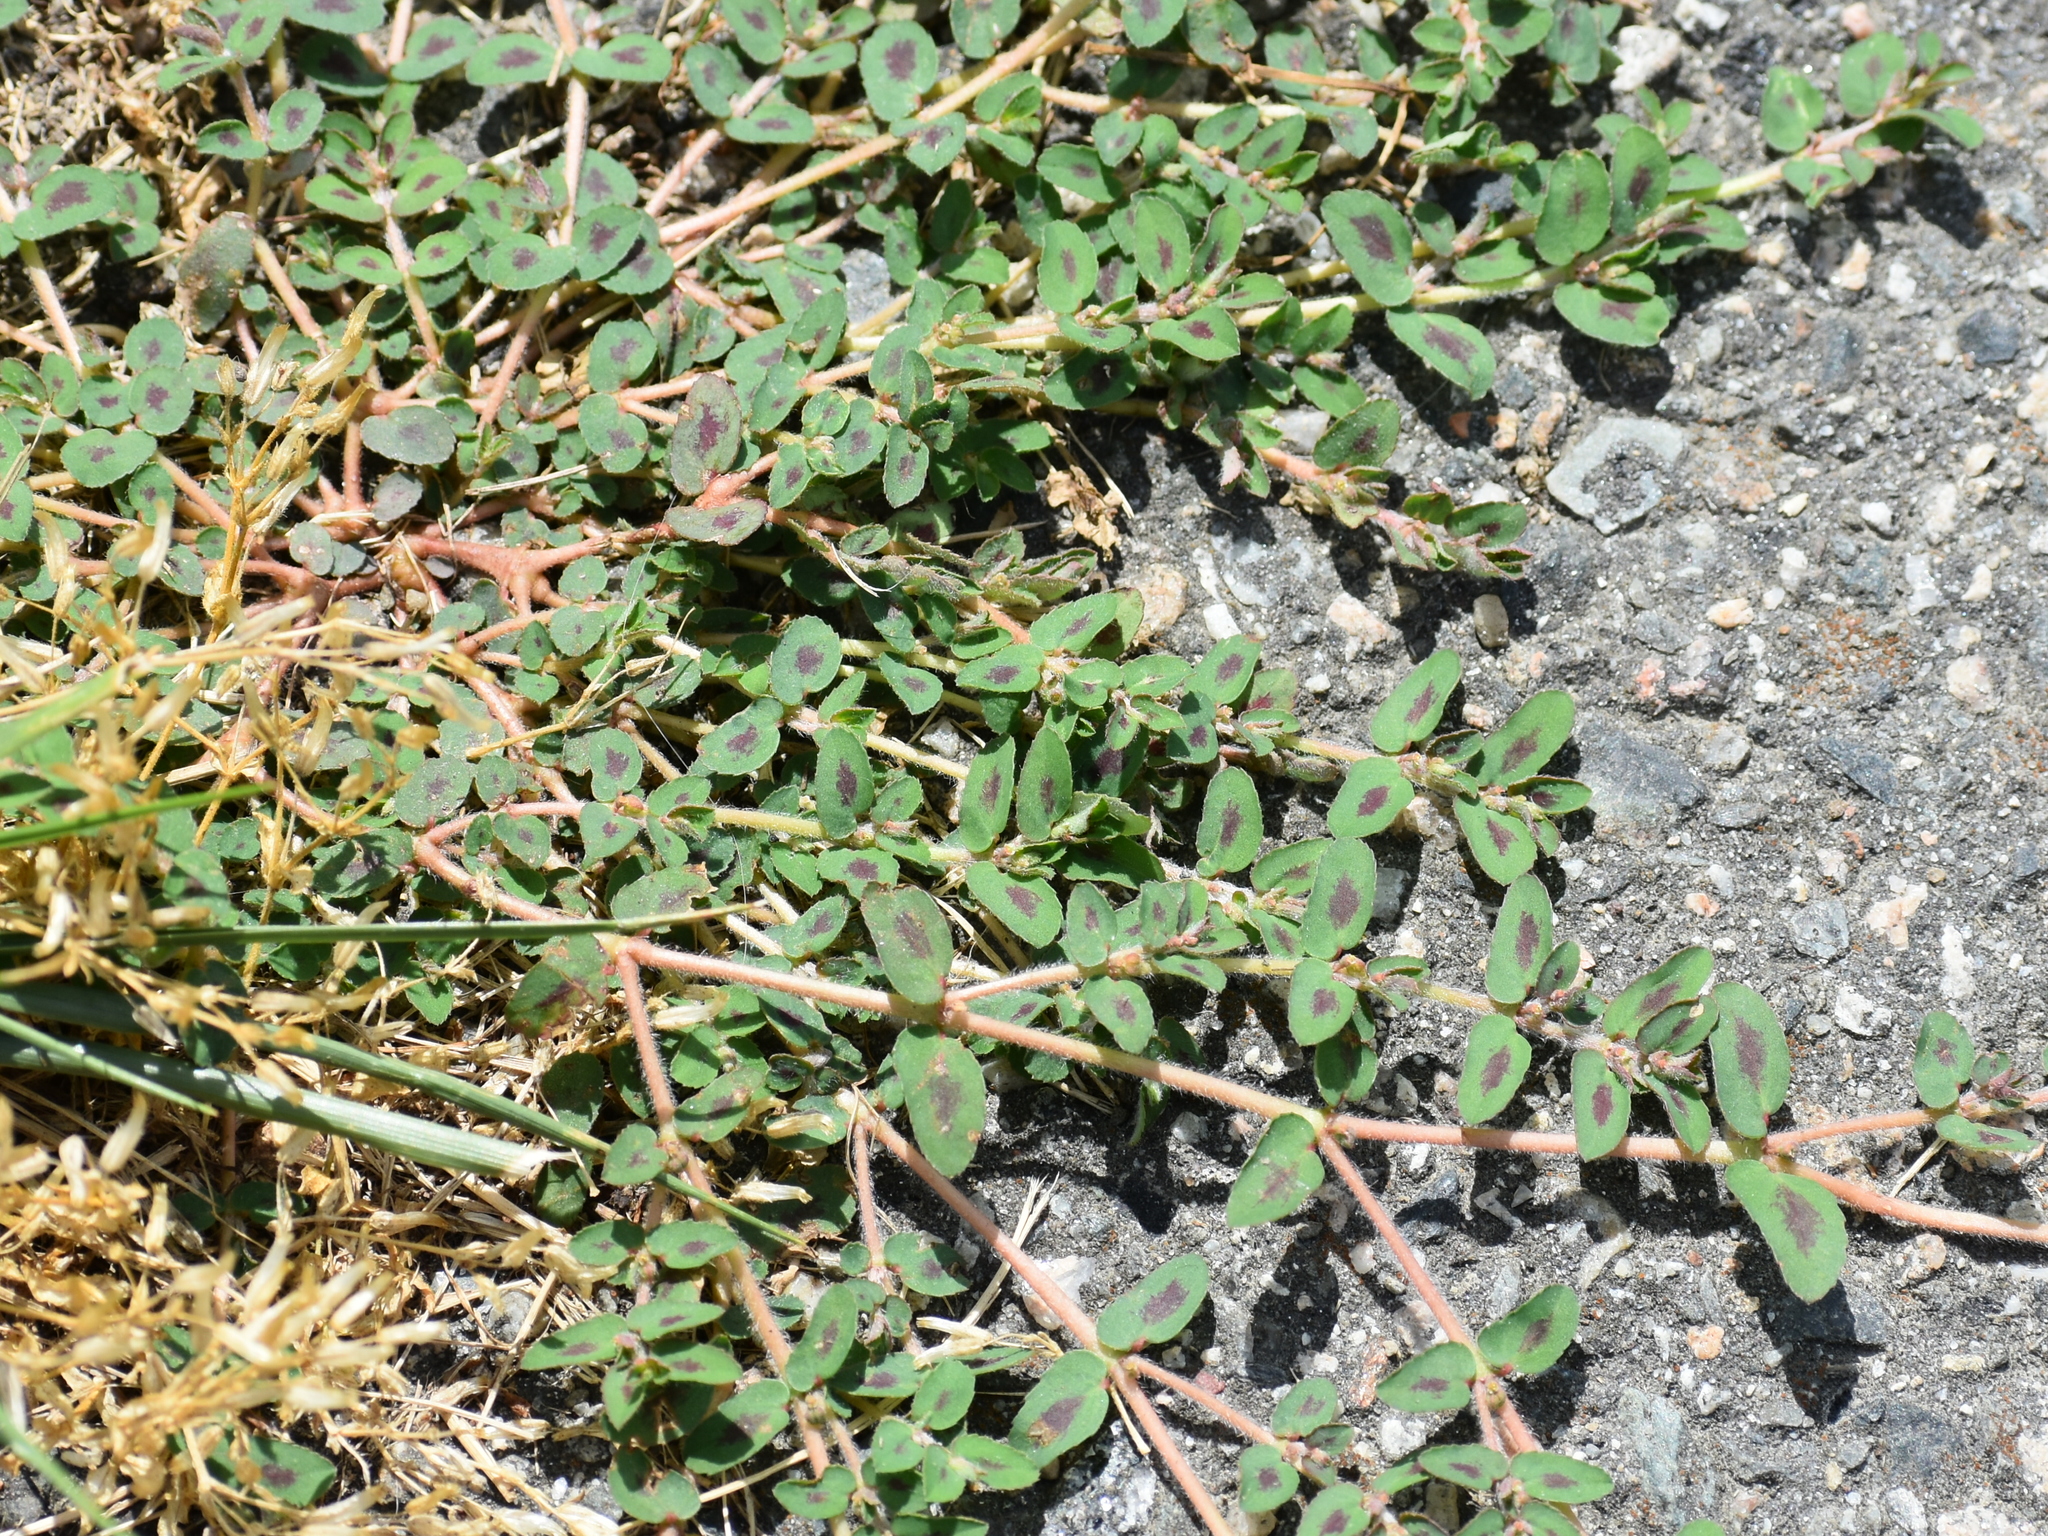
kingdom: Plantae
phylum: Tracheophyta
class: Magnoliopsida
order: Malpighiales
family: Euphorbiaceae
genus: Euphorbia
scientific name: Euphorbia maculata
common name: Spotted spurge
